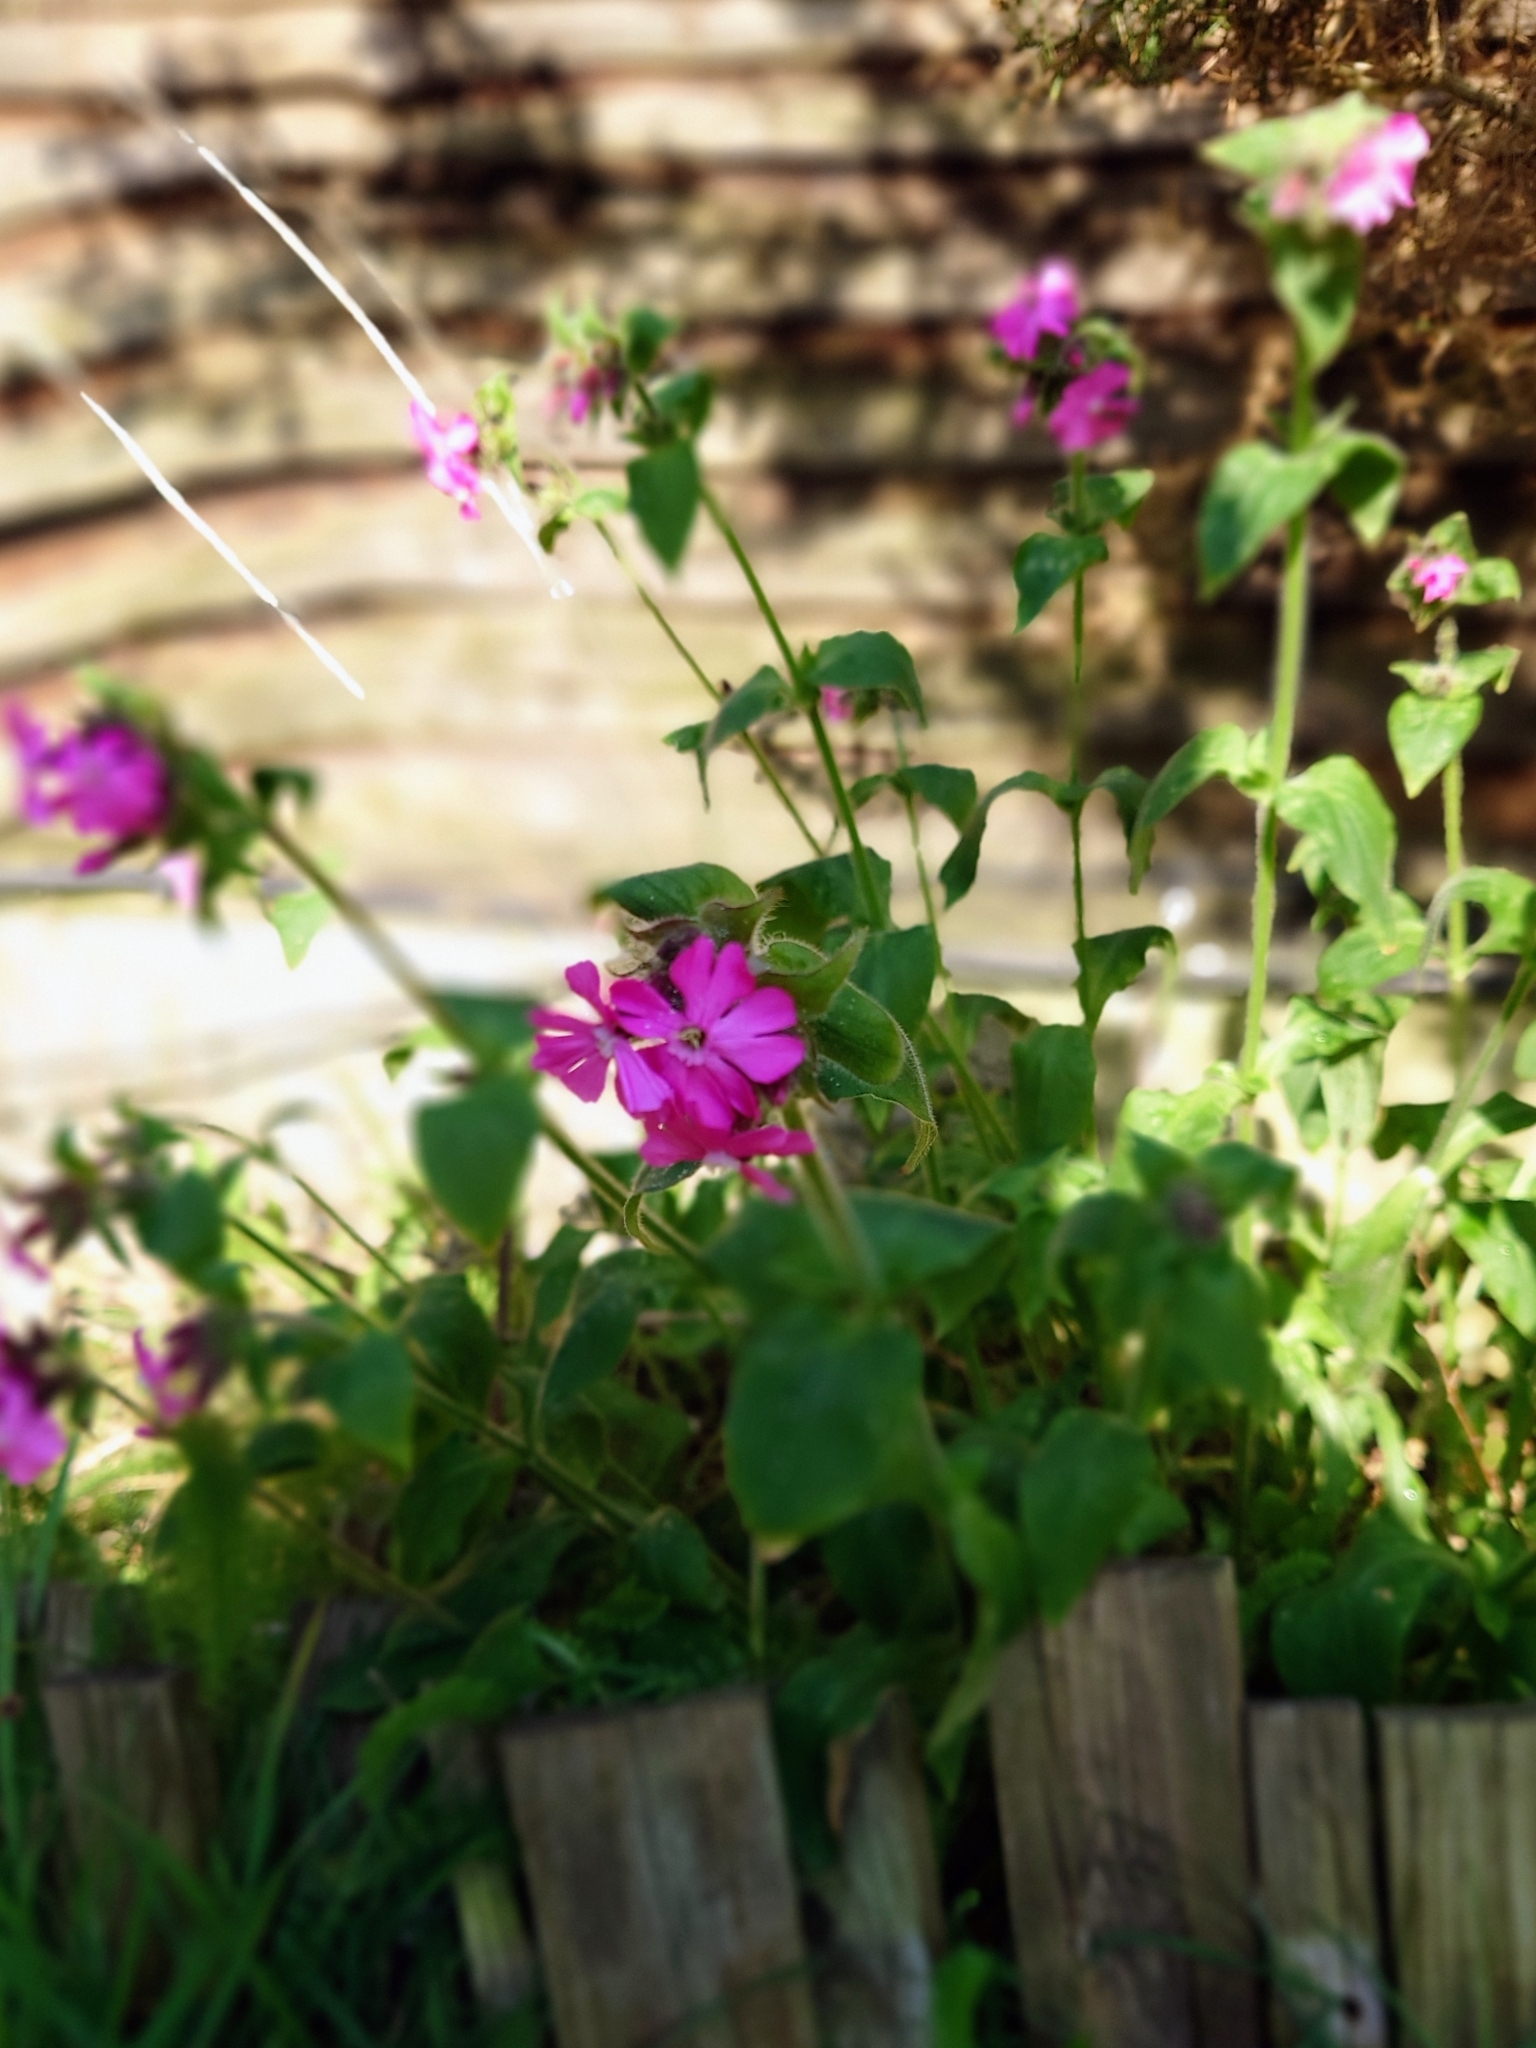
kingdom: Plantae
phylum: Tracheophyta
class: Magnoliopsida
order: Caryophyllales
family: Caryophyllaceae
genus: Silene
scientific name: Silene dioica
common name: Red campion
